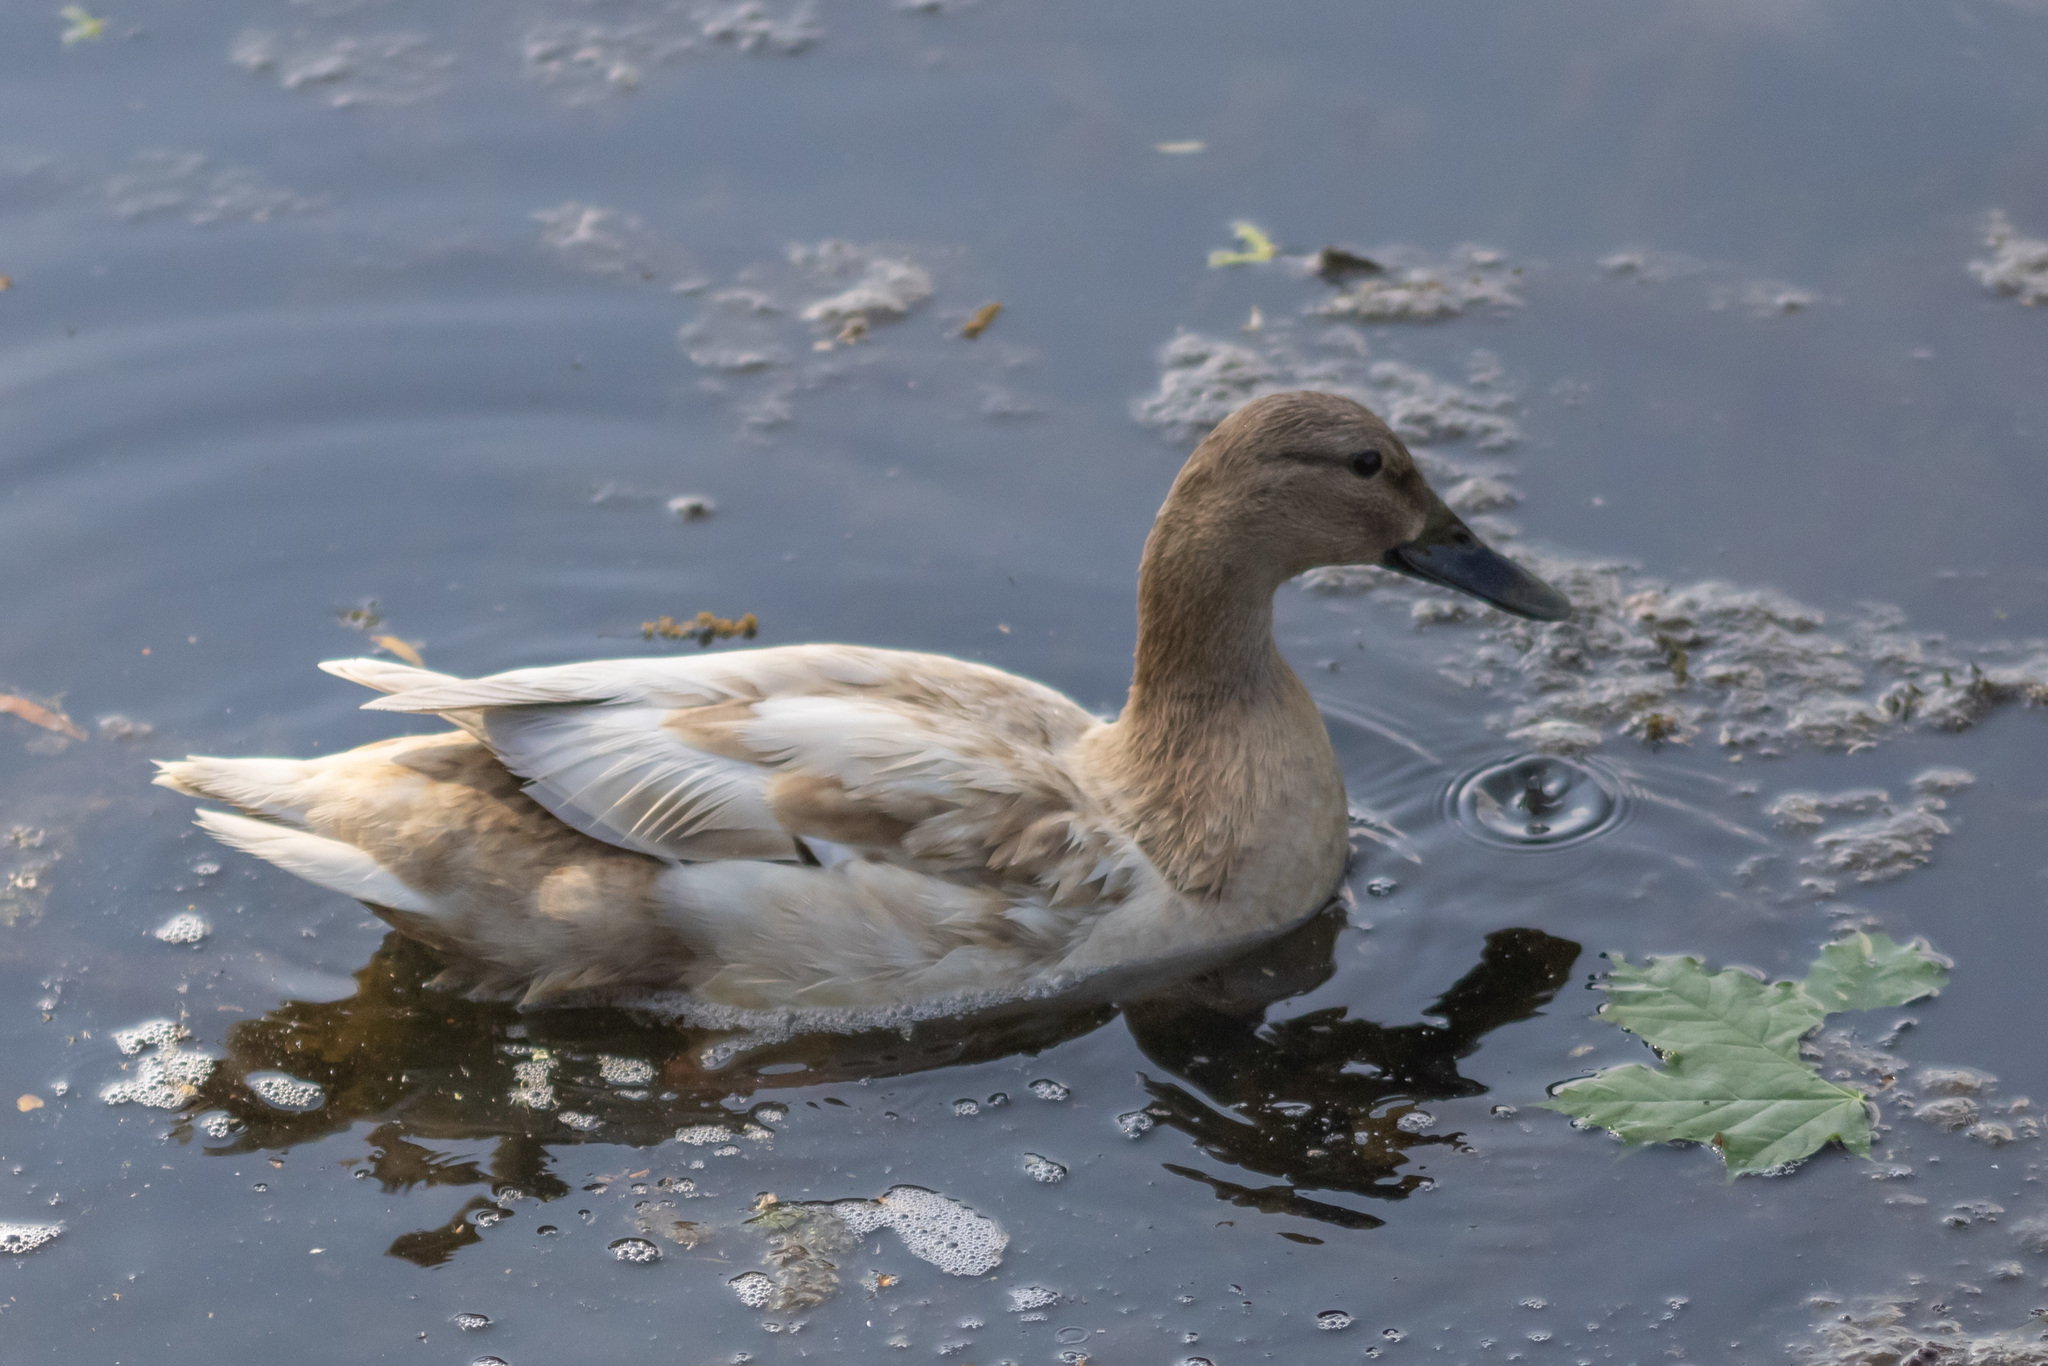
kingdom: Animalia
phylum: Chordata
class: Aves
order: Anseriformes
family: Anatidae
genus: Anas
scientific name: Anas platyrhynchos
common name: Mallard
